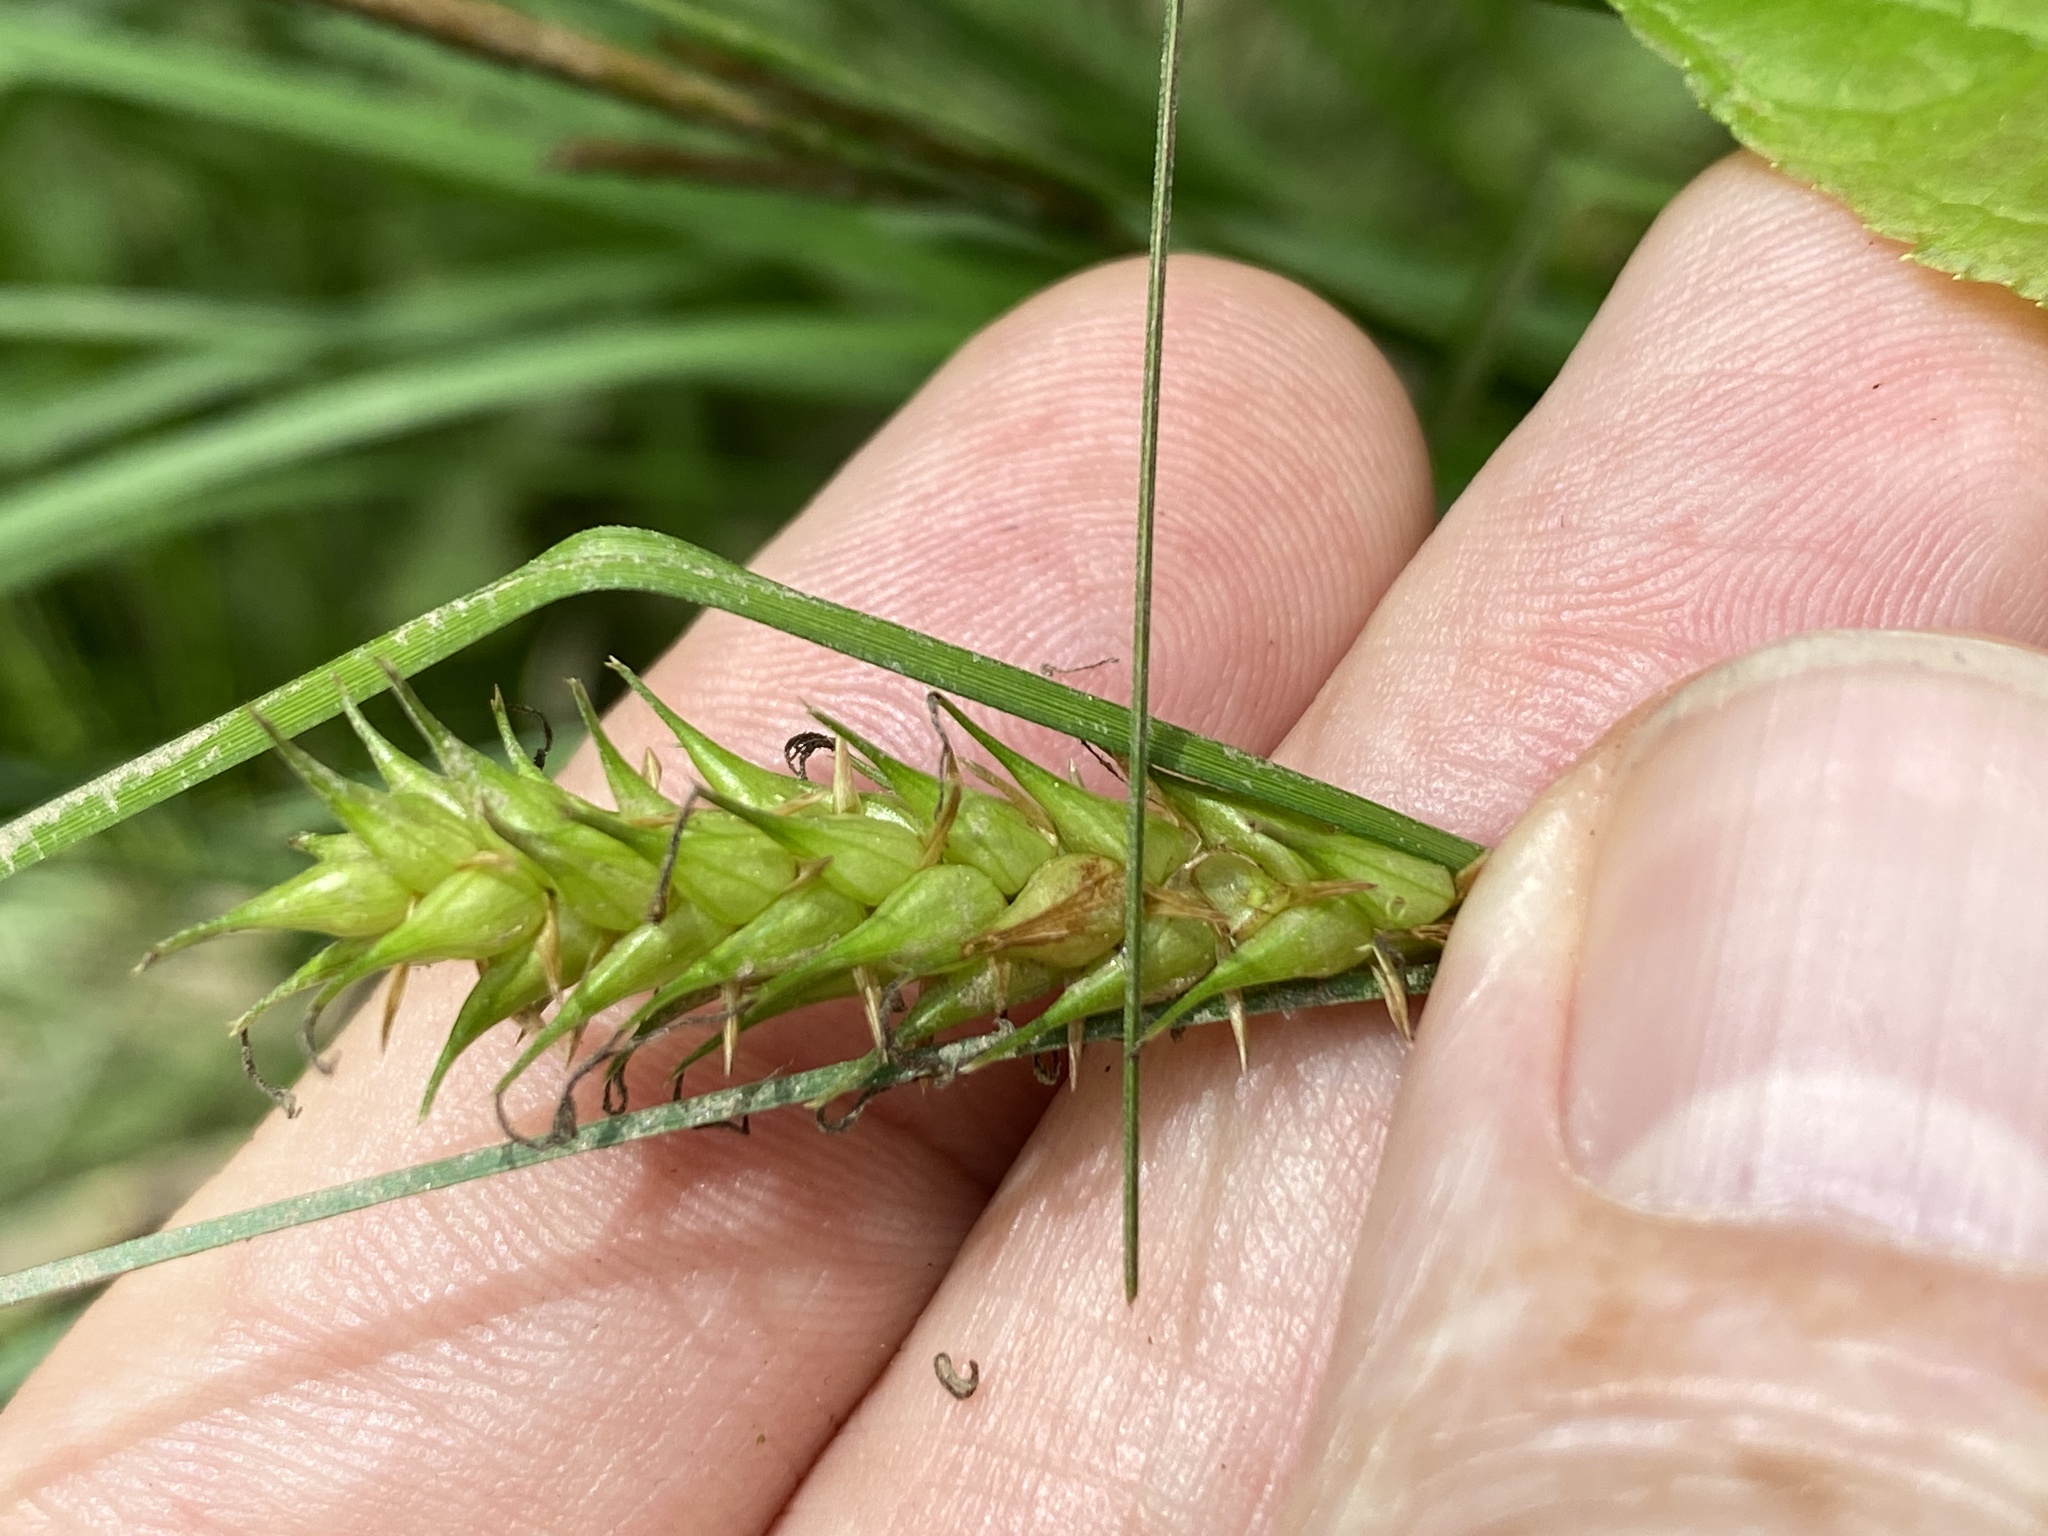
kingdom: Plantae
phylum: Tracheophyta
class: Liliopsida
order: Poales
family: Cyperaceae
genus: Carex
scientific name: Carex bullata
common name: Button sedge
